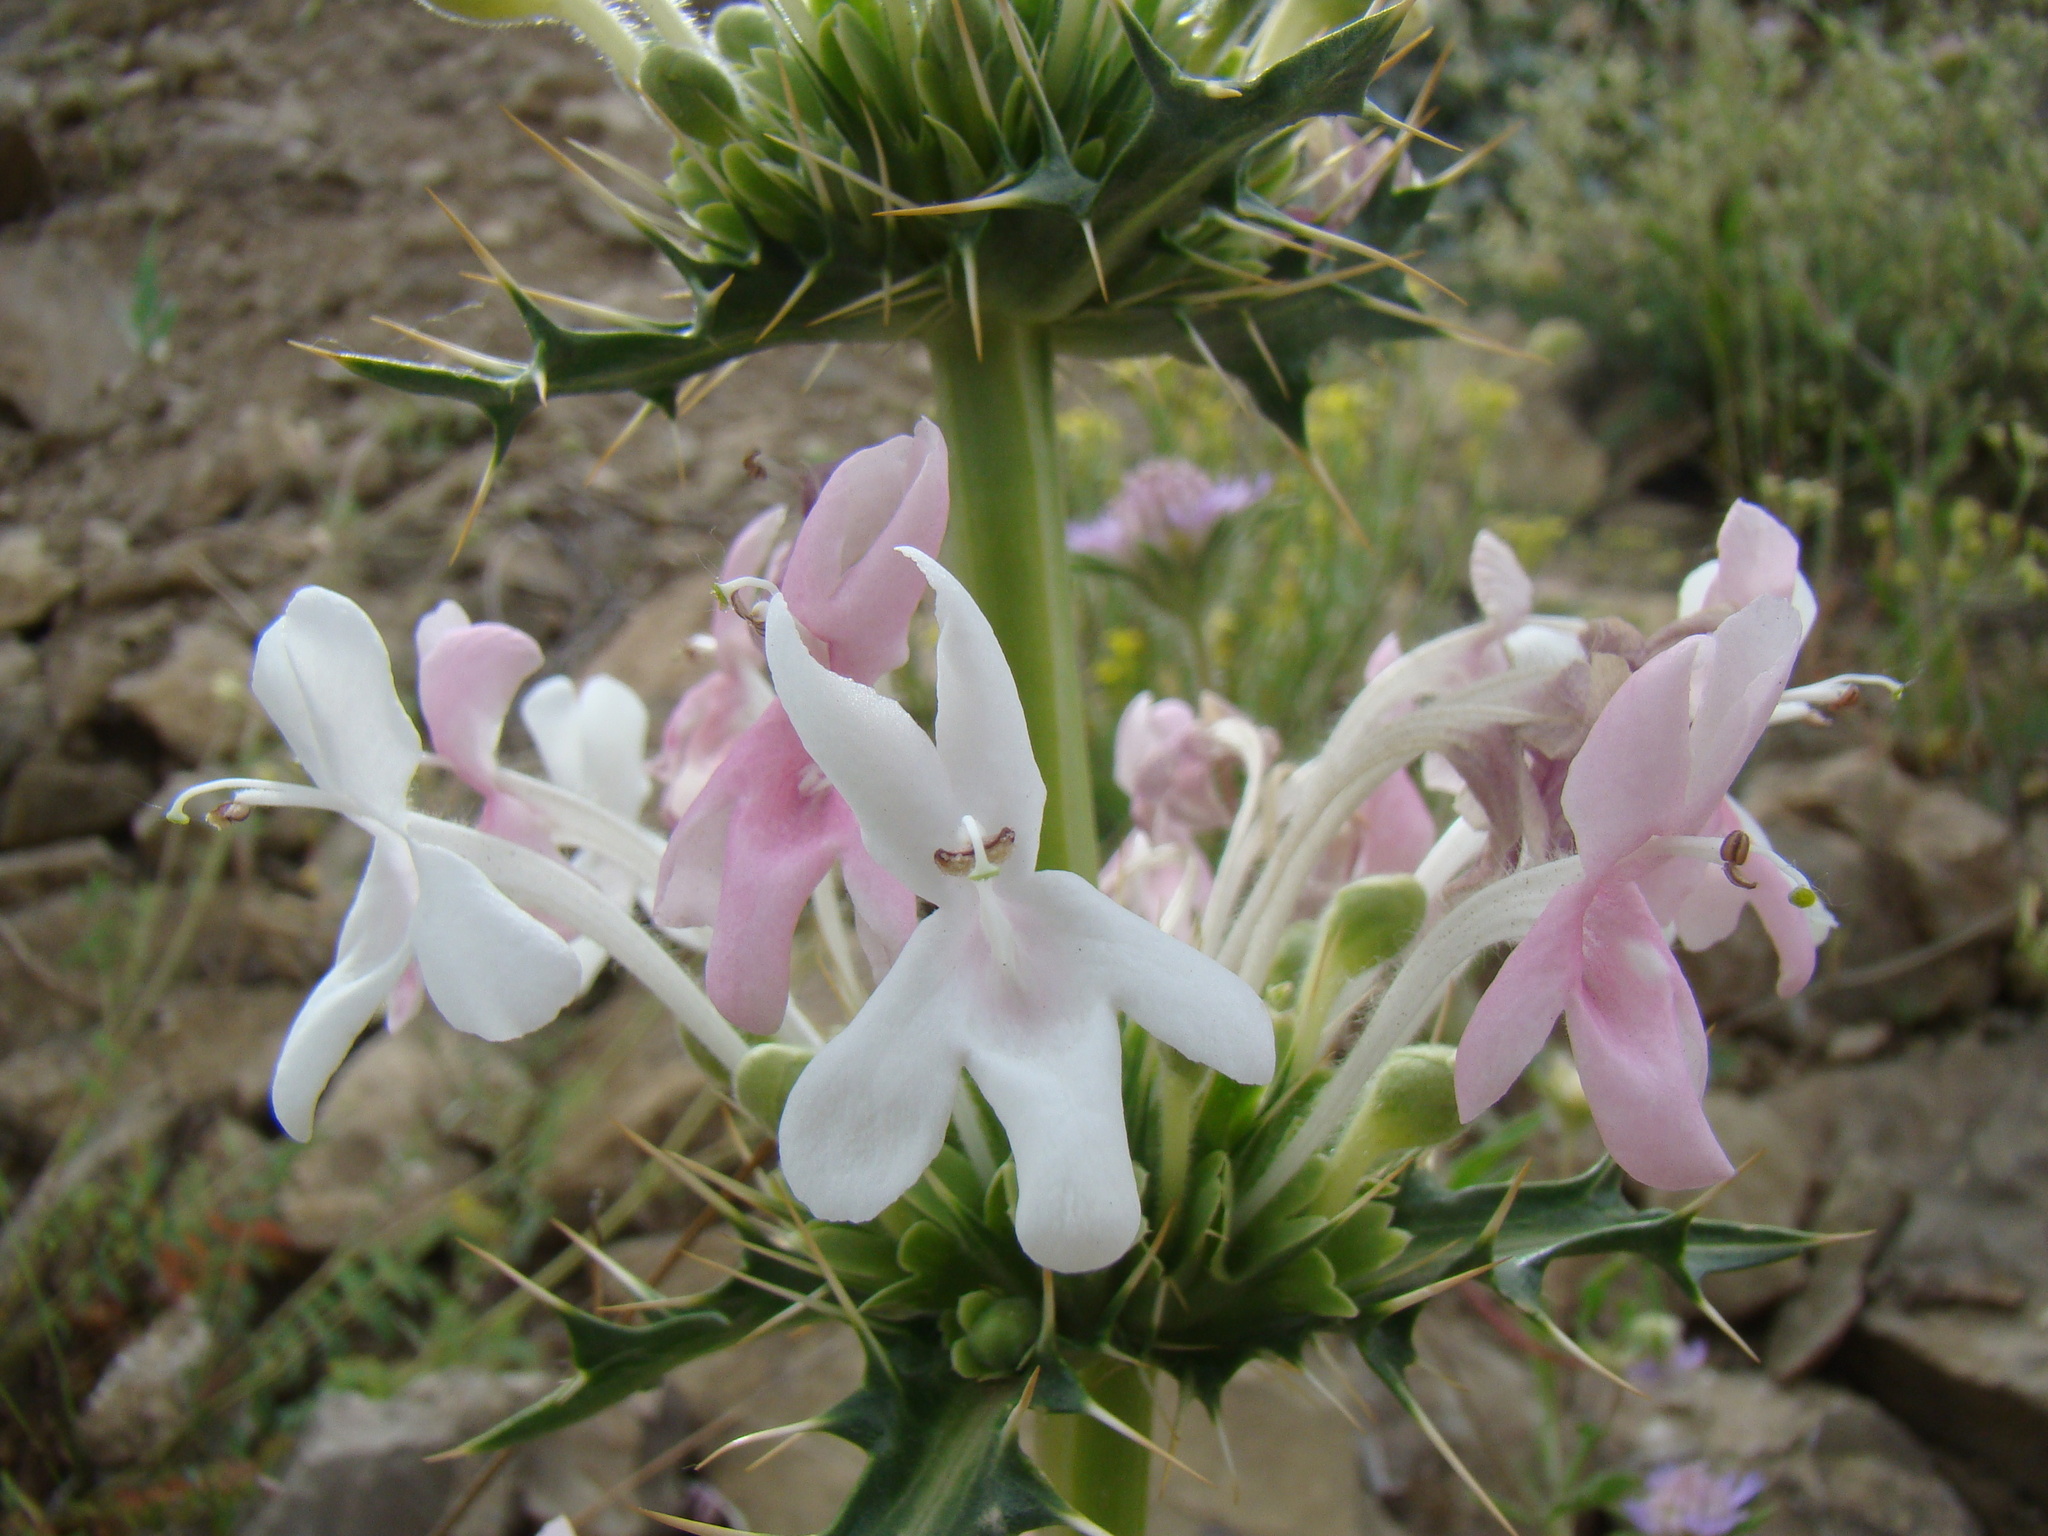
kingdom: Plantae
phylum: Tracheophyta
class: Magnoliopsida
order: Dipsacales
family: Caprifoliaceae
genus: Morina
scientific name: Morina persica
